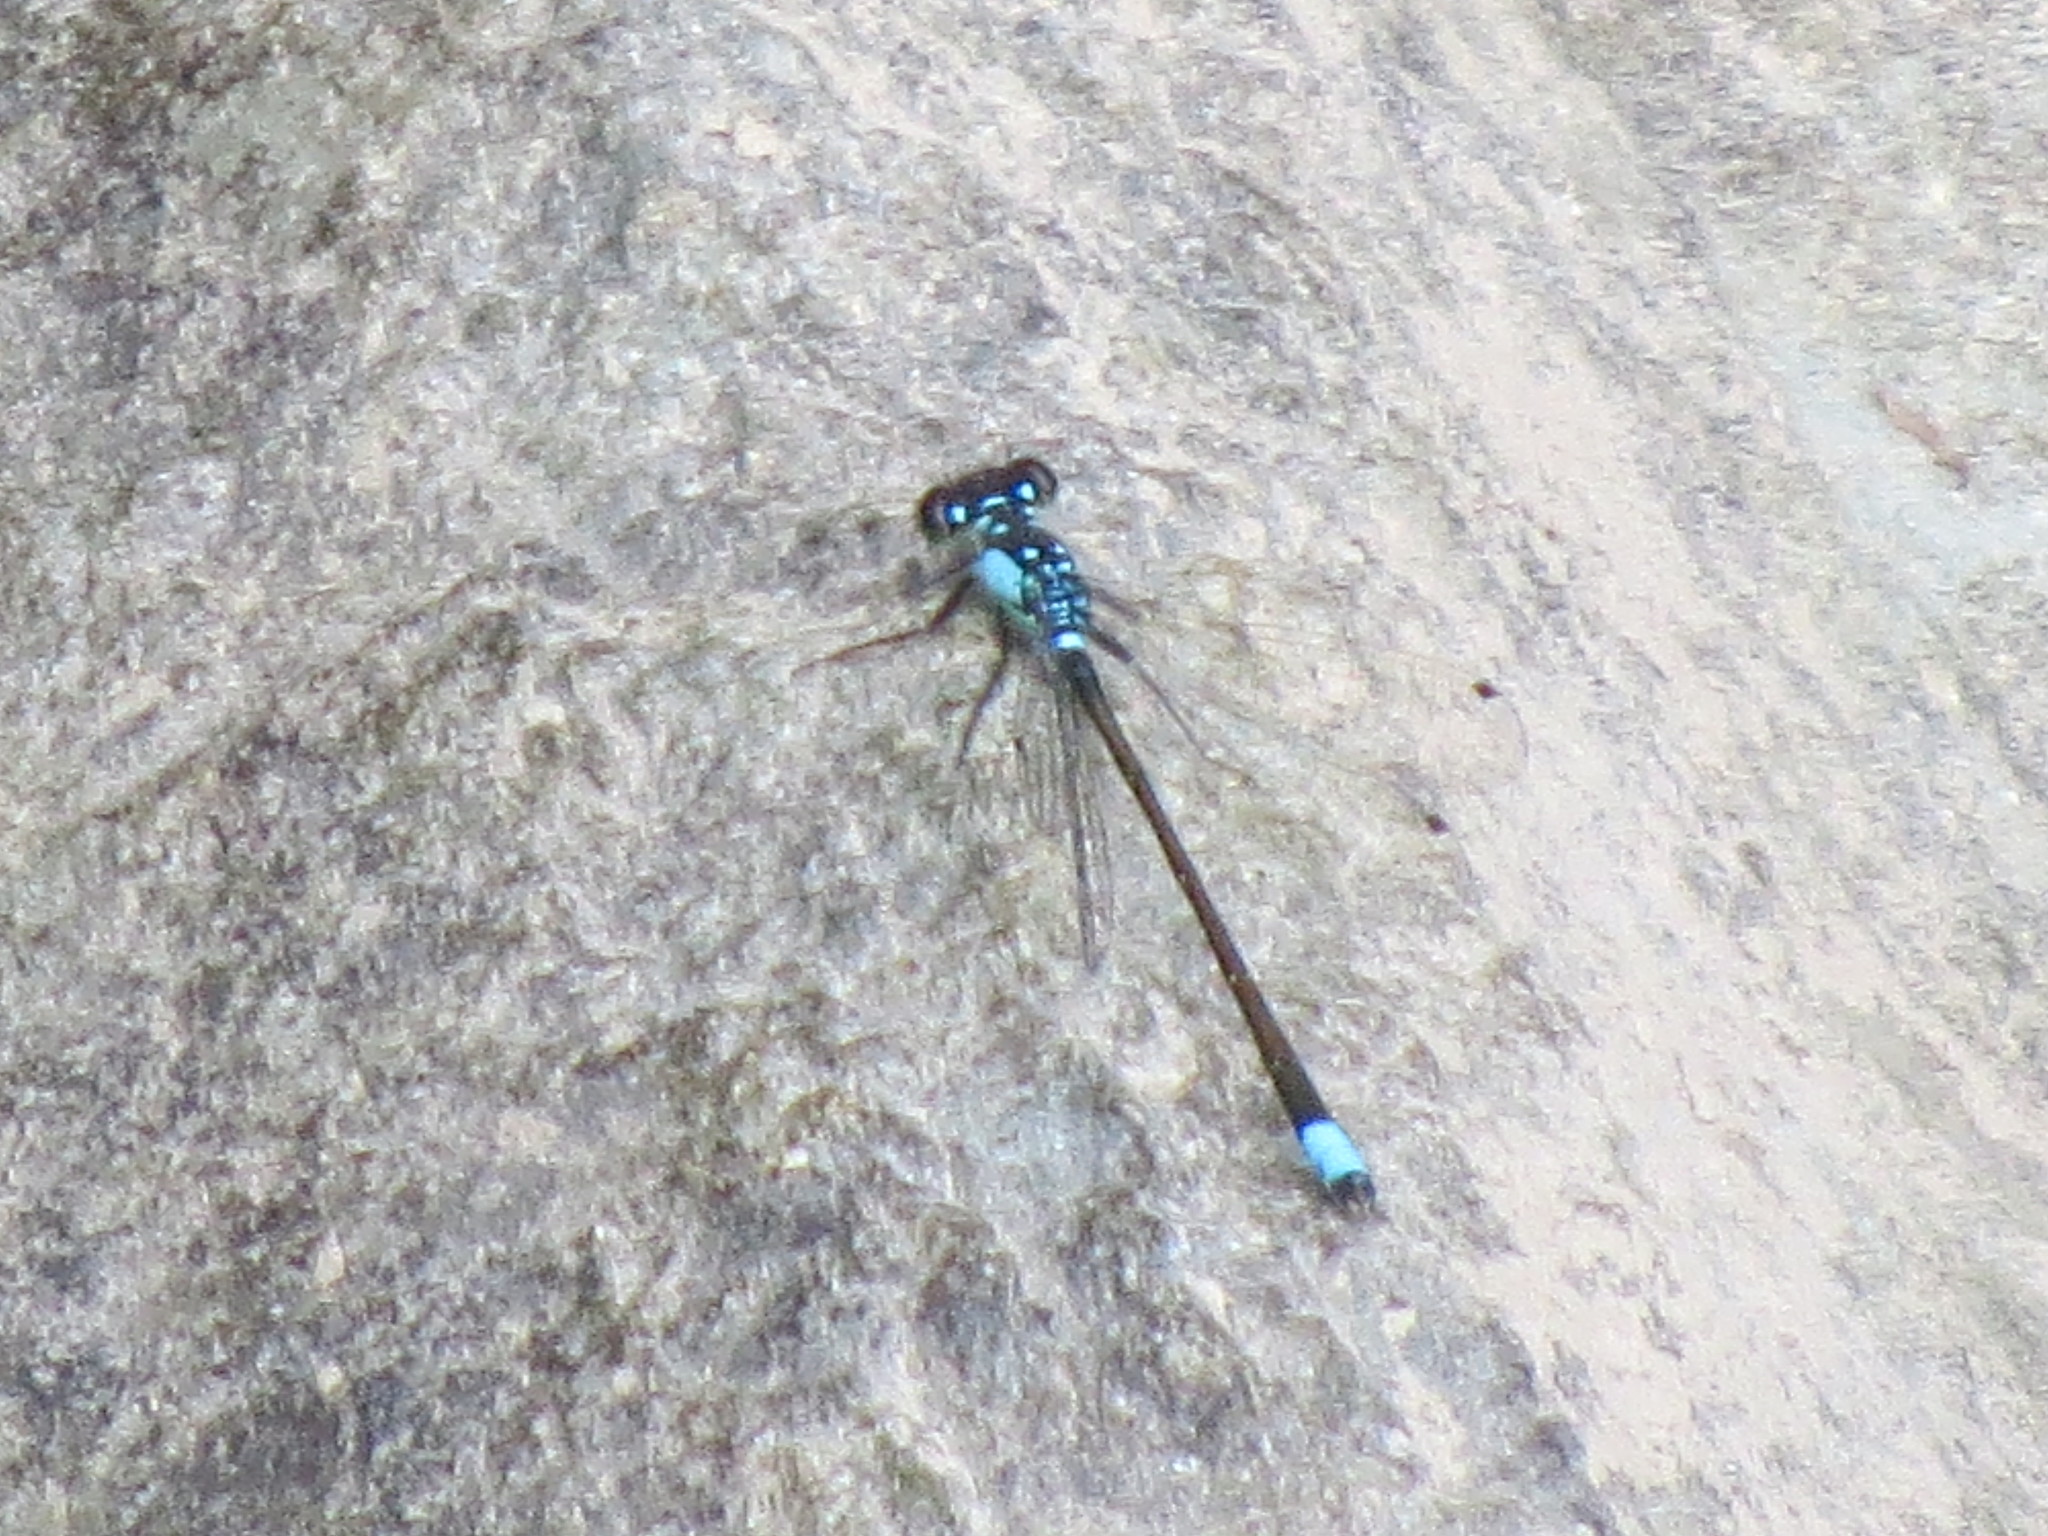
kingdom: Animalia
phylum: Arthropoda
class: Insecta
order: Odonata
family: Coenagrionidae
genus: Ischnura
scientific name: Ischnura cervula
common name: Pacific forktail
